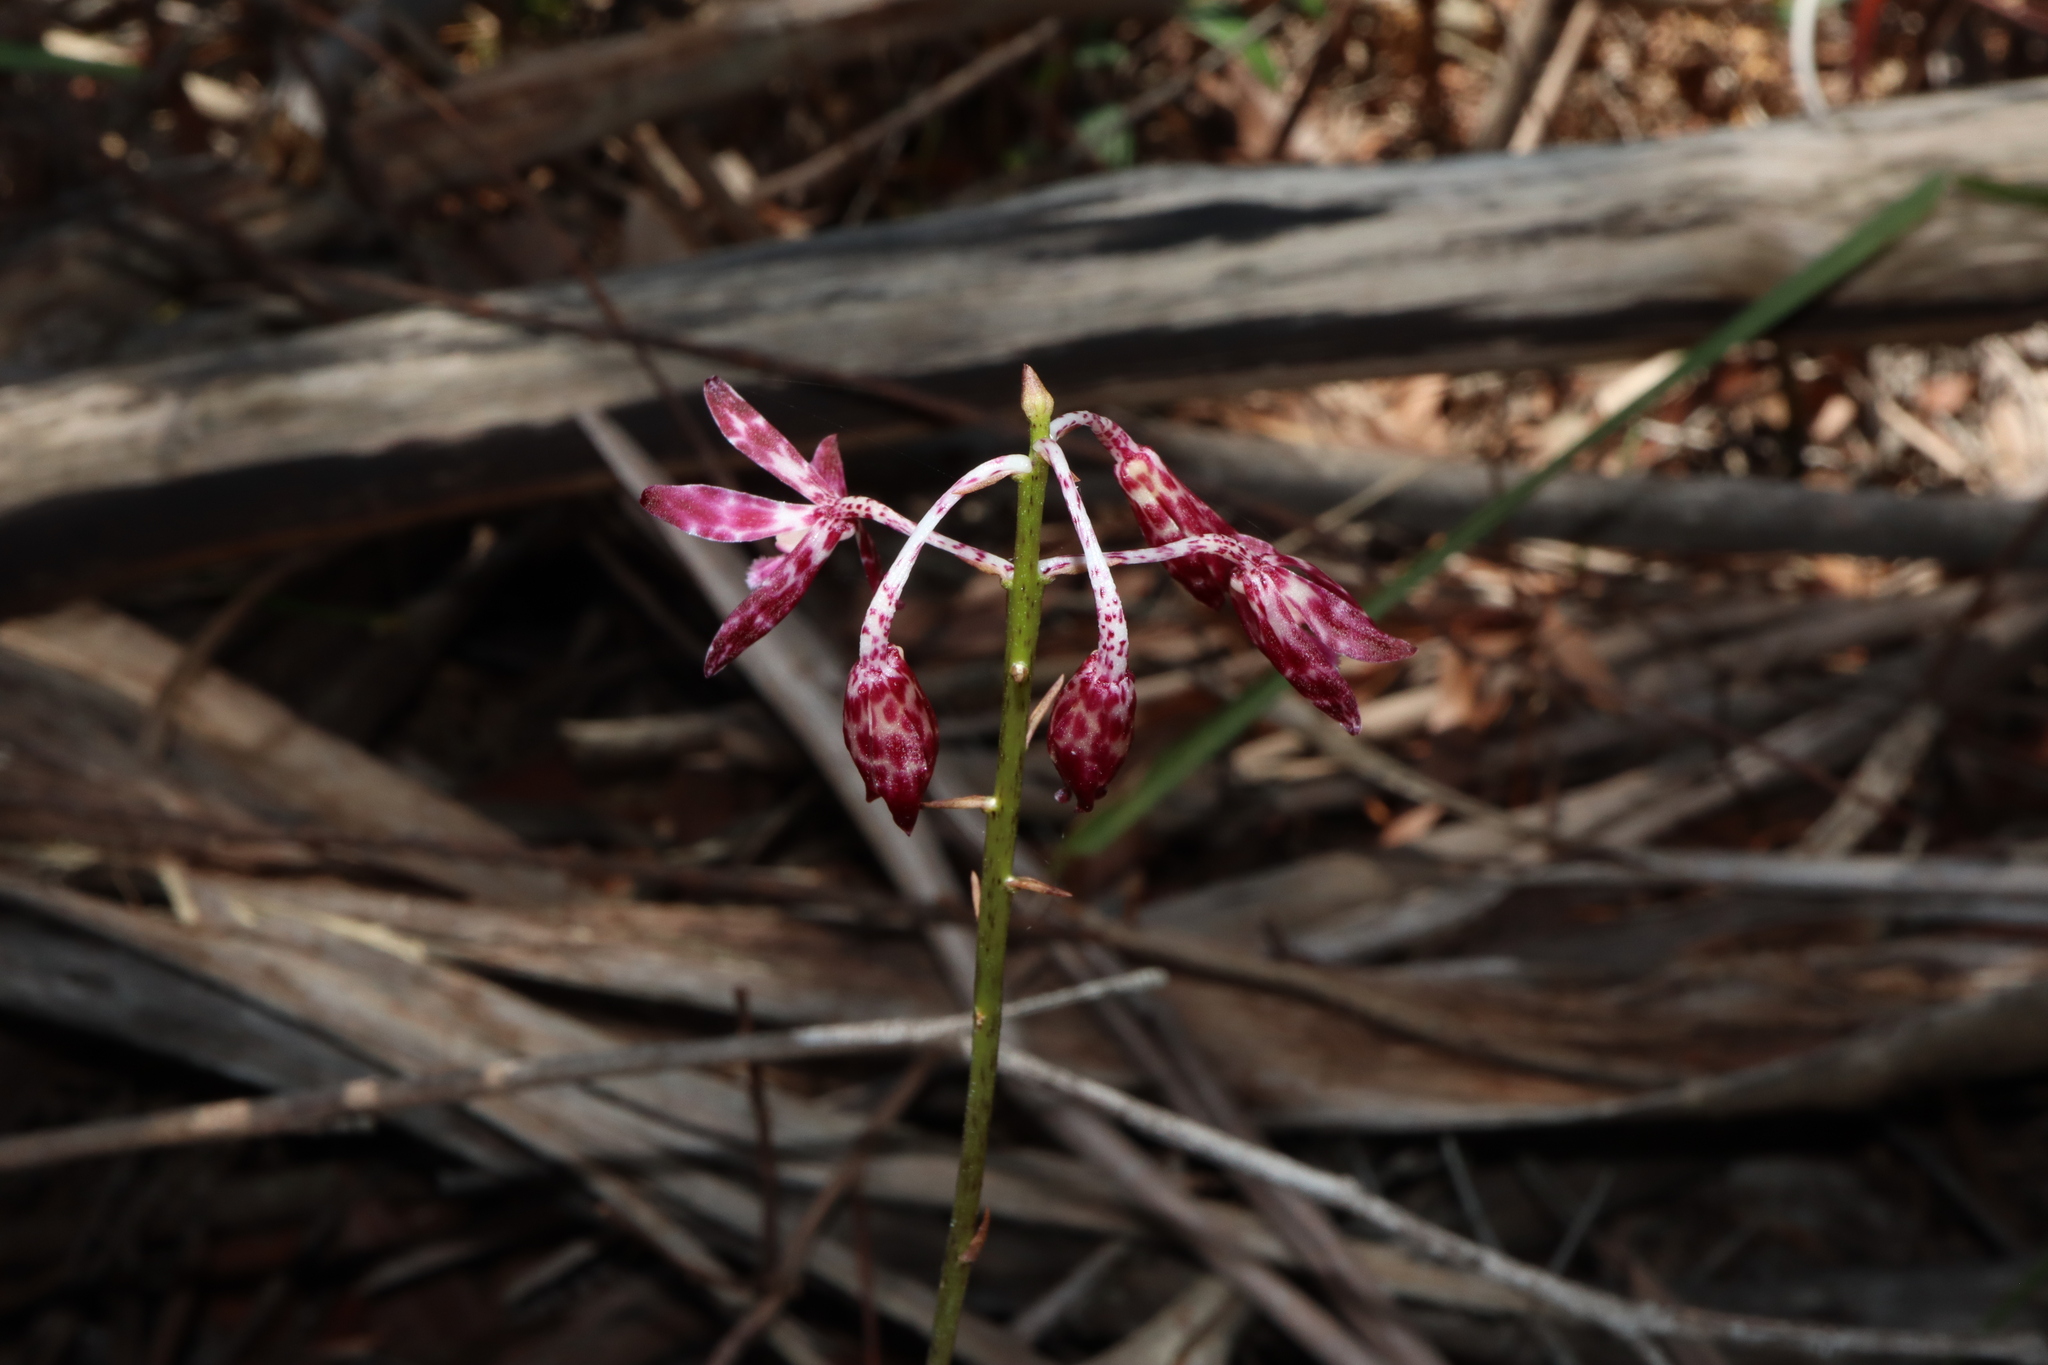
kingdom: Plantae
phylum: Tracheophyta
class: Liliopsida
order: Asparagales
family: Orchidaceae
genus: Dipodium
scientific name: Dipodium variegatum
